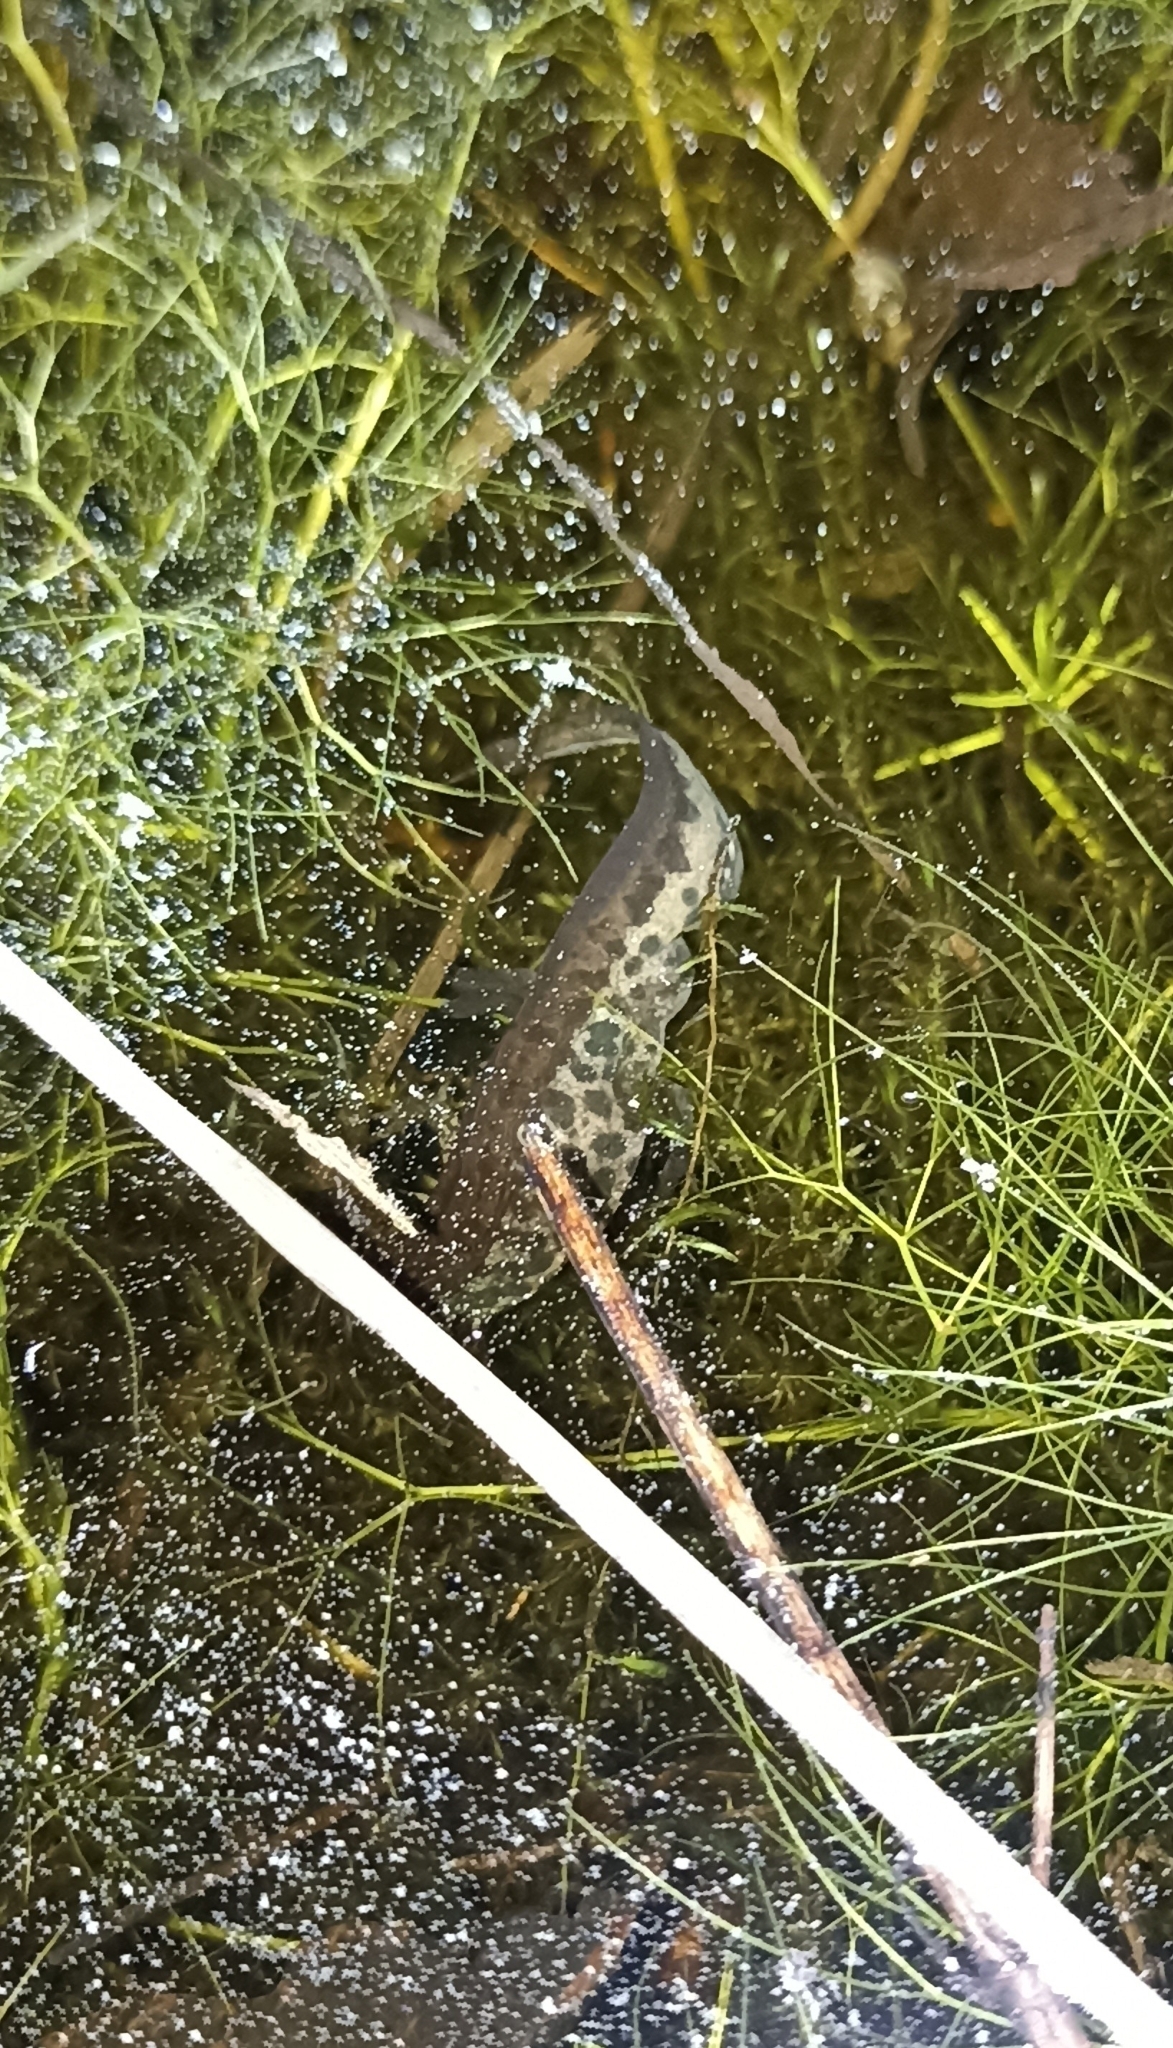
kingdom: Animalia
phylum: Chordata
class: Amphibia
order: Caudata
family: Salamandridae
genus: Lissotriton
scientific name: Lissotriton helveticus
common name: Palmate newt
